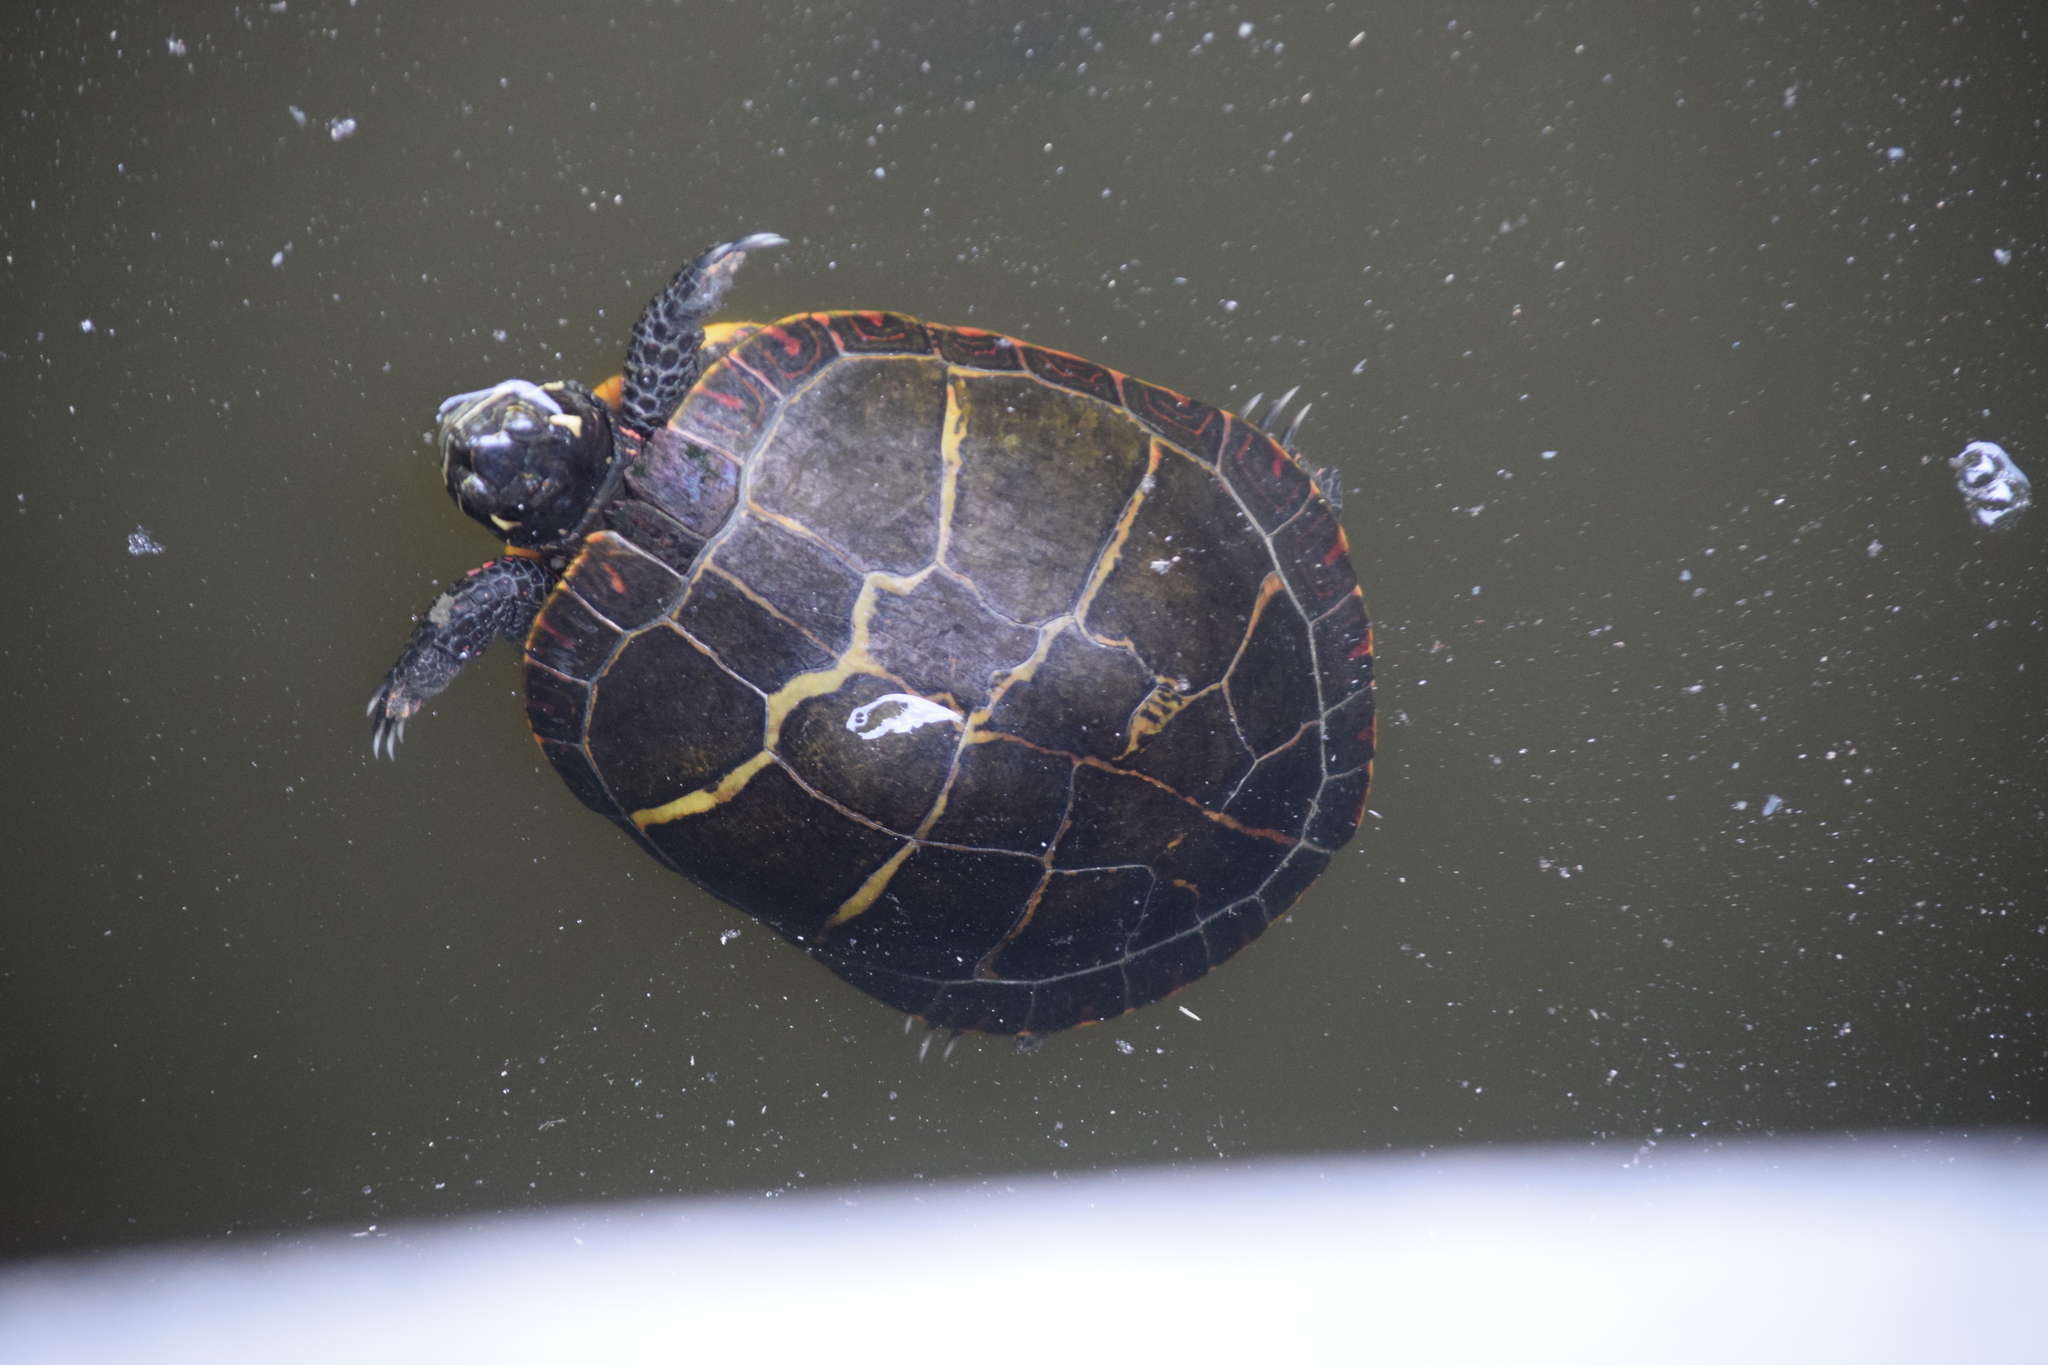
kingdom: Animalia
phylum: Chordata
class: Testudines
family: Emydidae
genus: Chrysemys
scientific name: Chrysemys picta
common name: Painted turtle
